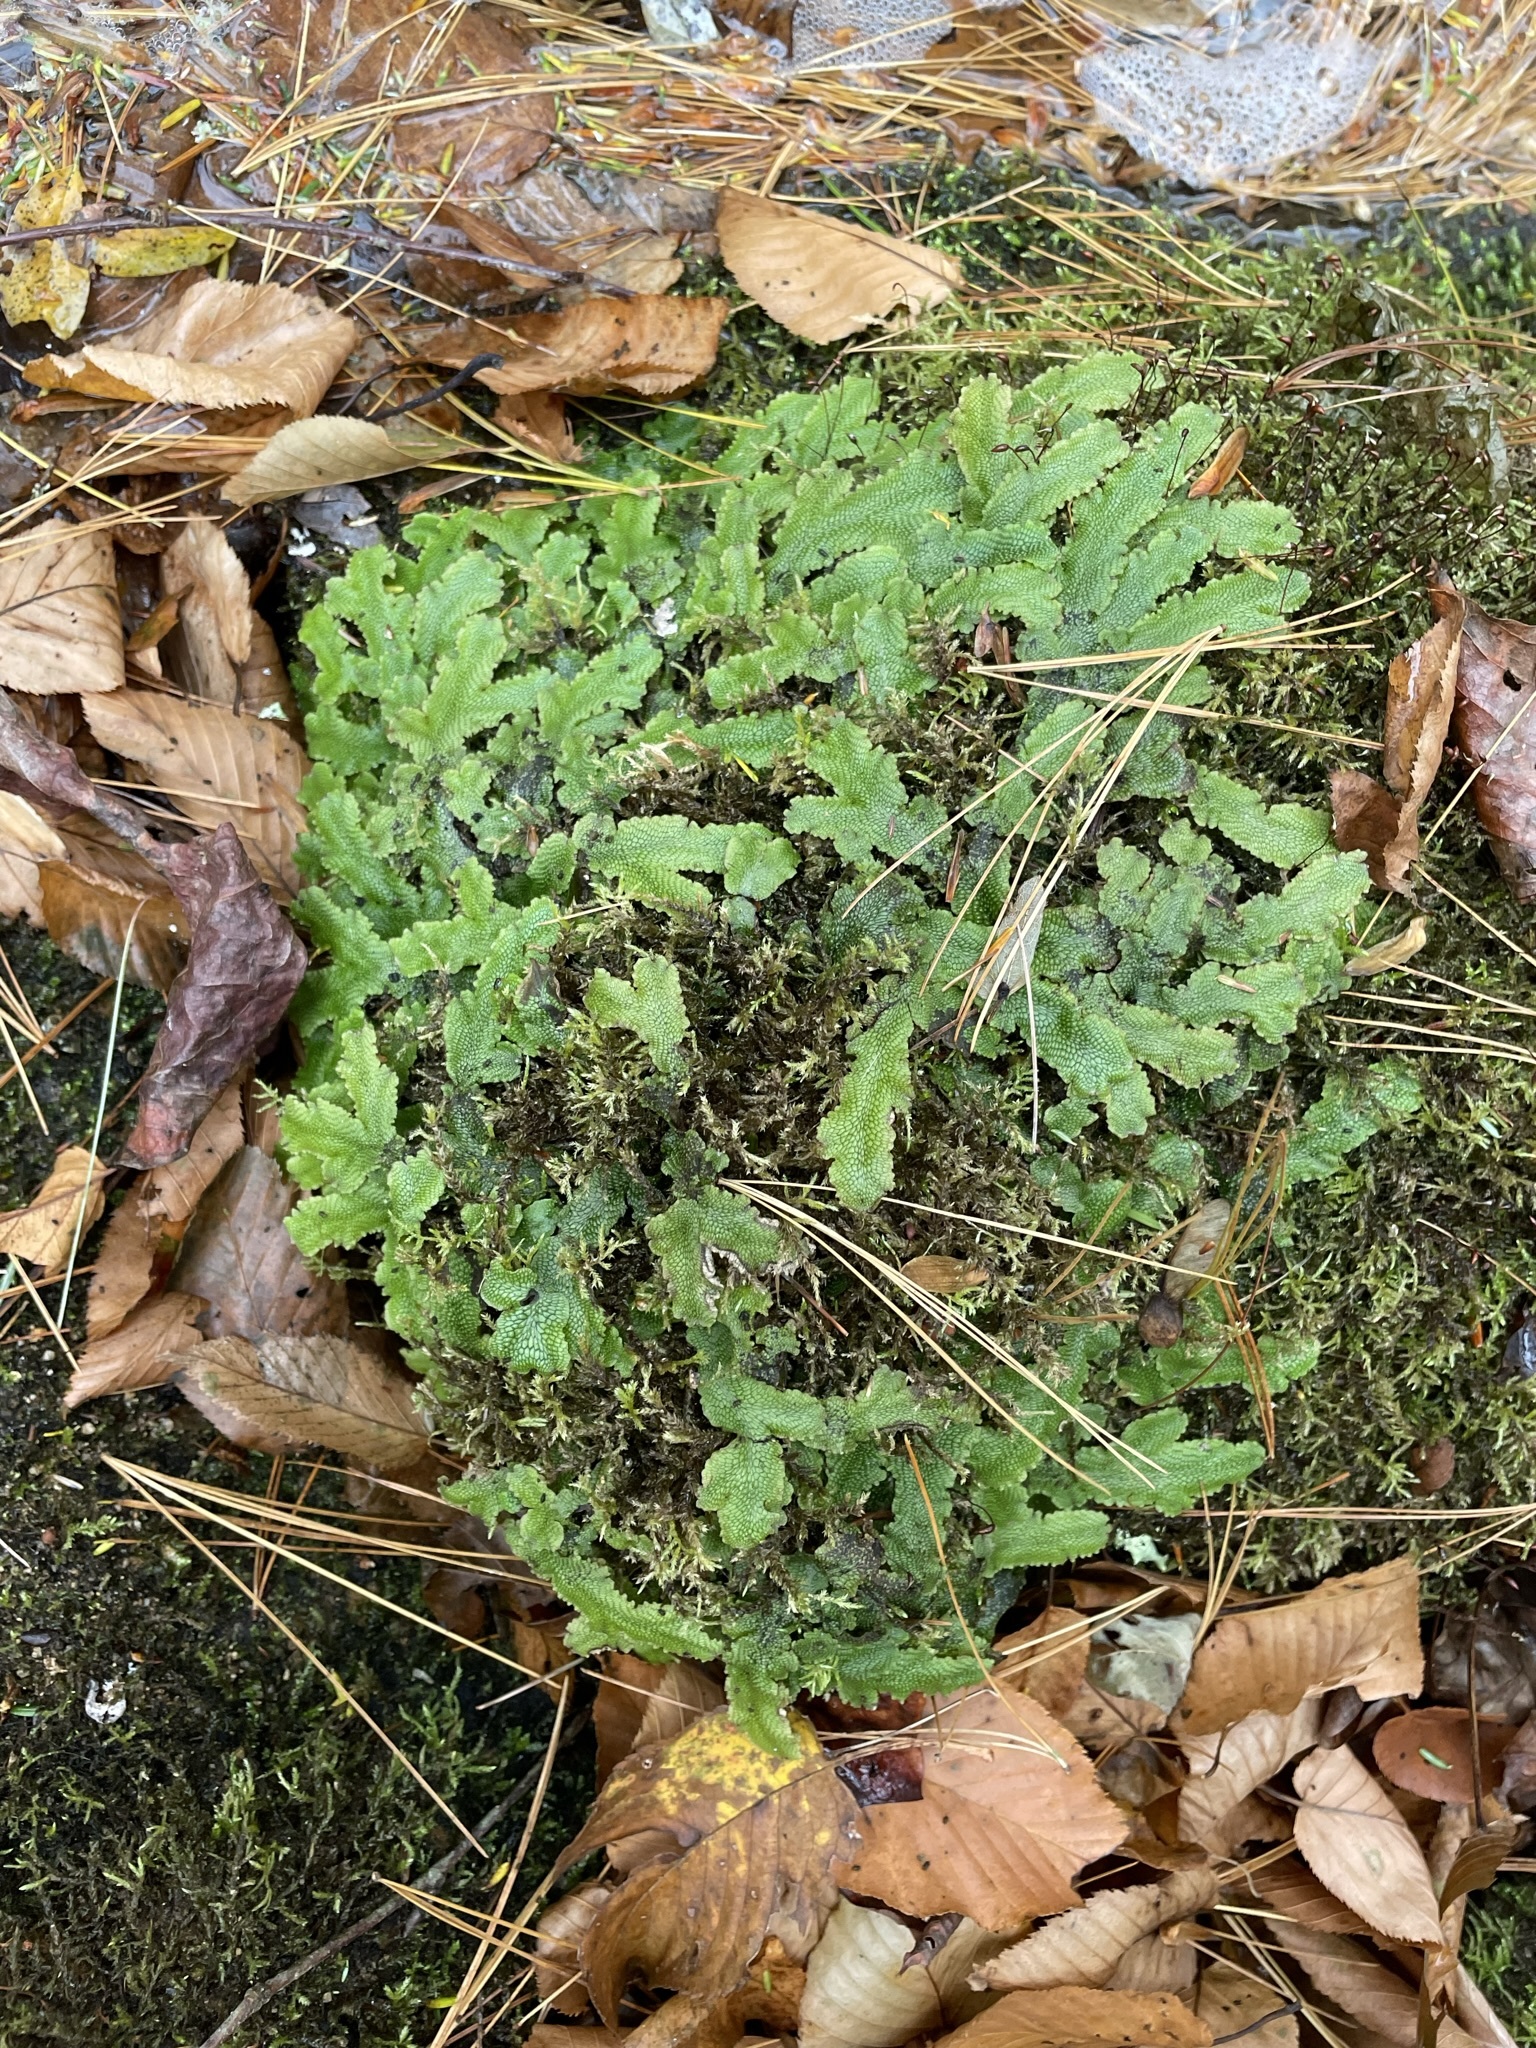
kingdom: Plantae
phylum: Marchantiophyta
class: Marchantiopsida
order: Marchantiales
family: Conocephalaceae
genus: Conocephalum
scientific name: Conocephalum salebrosum
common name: Cat-tongue liverwort
